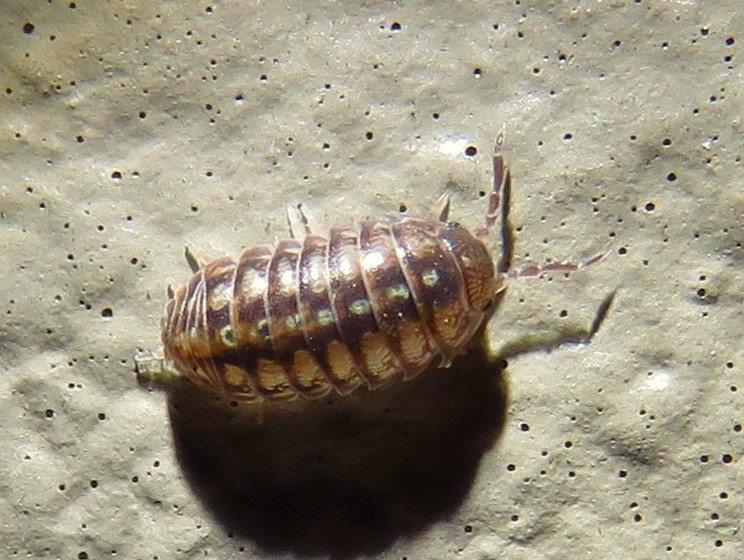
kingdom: Animalia
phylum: Arthropoda
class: Malacostraca
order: Isopoda
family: Armadillidiidae
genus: Armadillidium
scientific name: Armadillidium vulgare
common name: Common pill woodlouse
